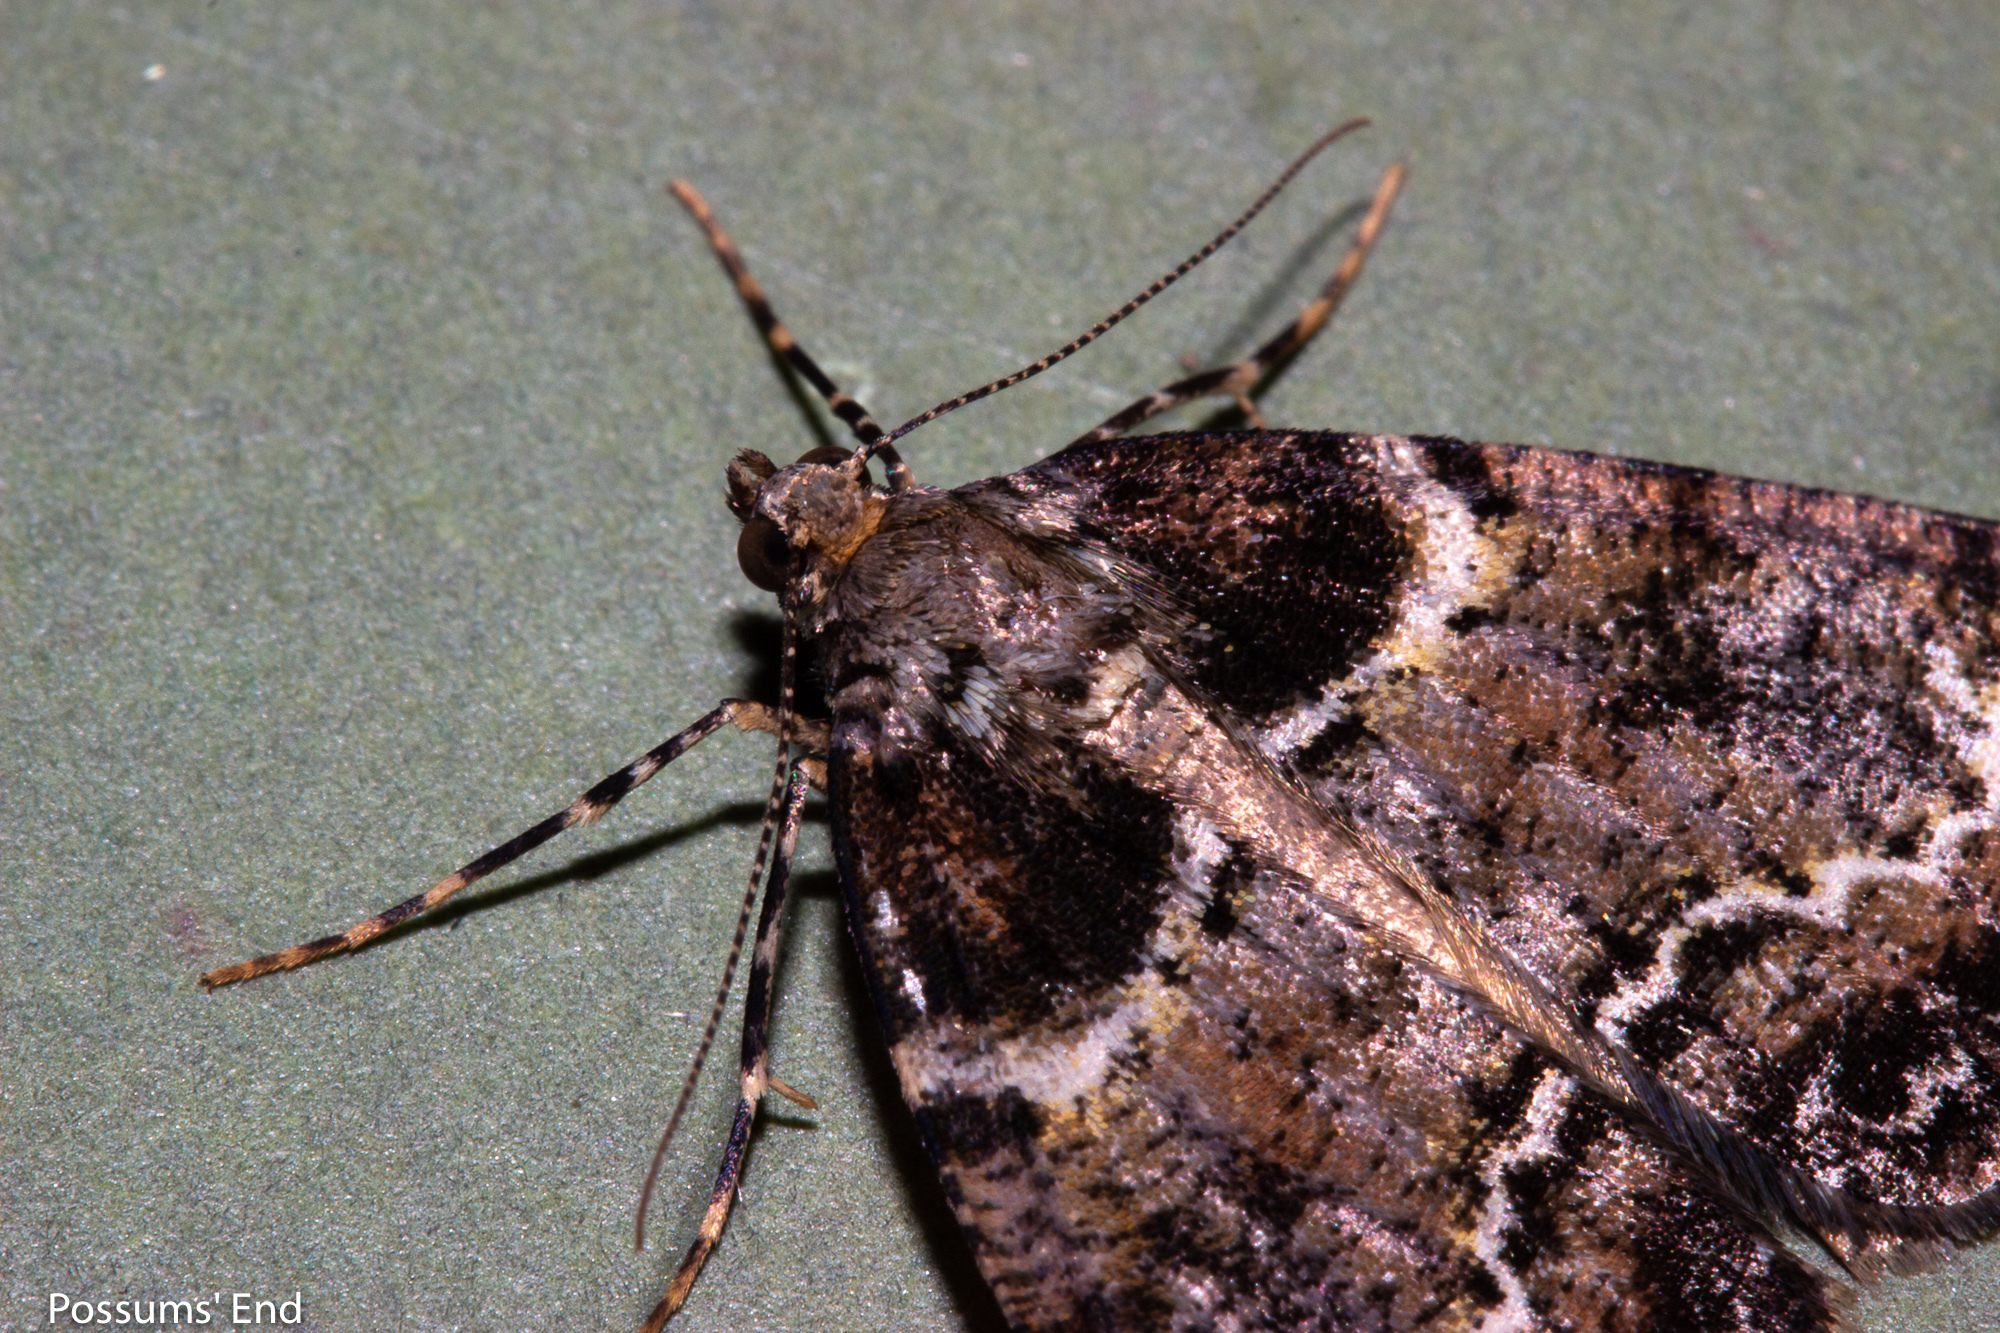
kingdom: Animalia
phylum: Arthropoda
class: Insecta
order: Lepidoptera
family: Geometridae
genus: Pseudocoremia
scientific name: Pseudocoremia productata
